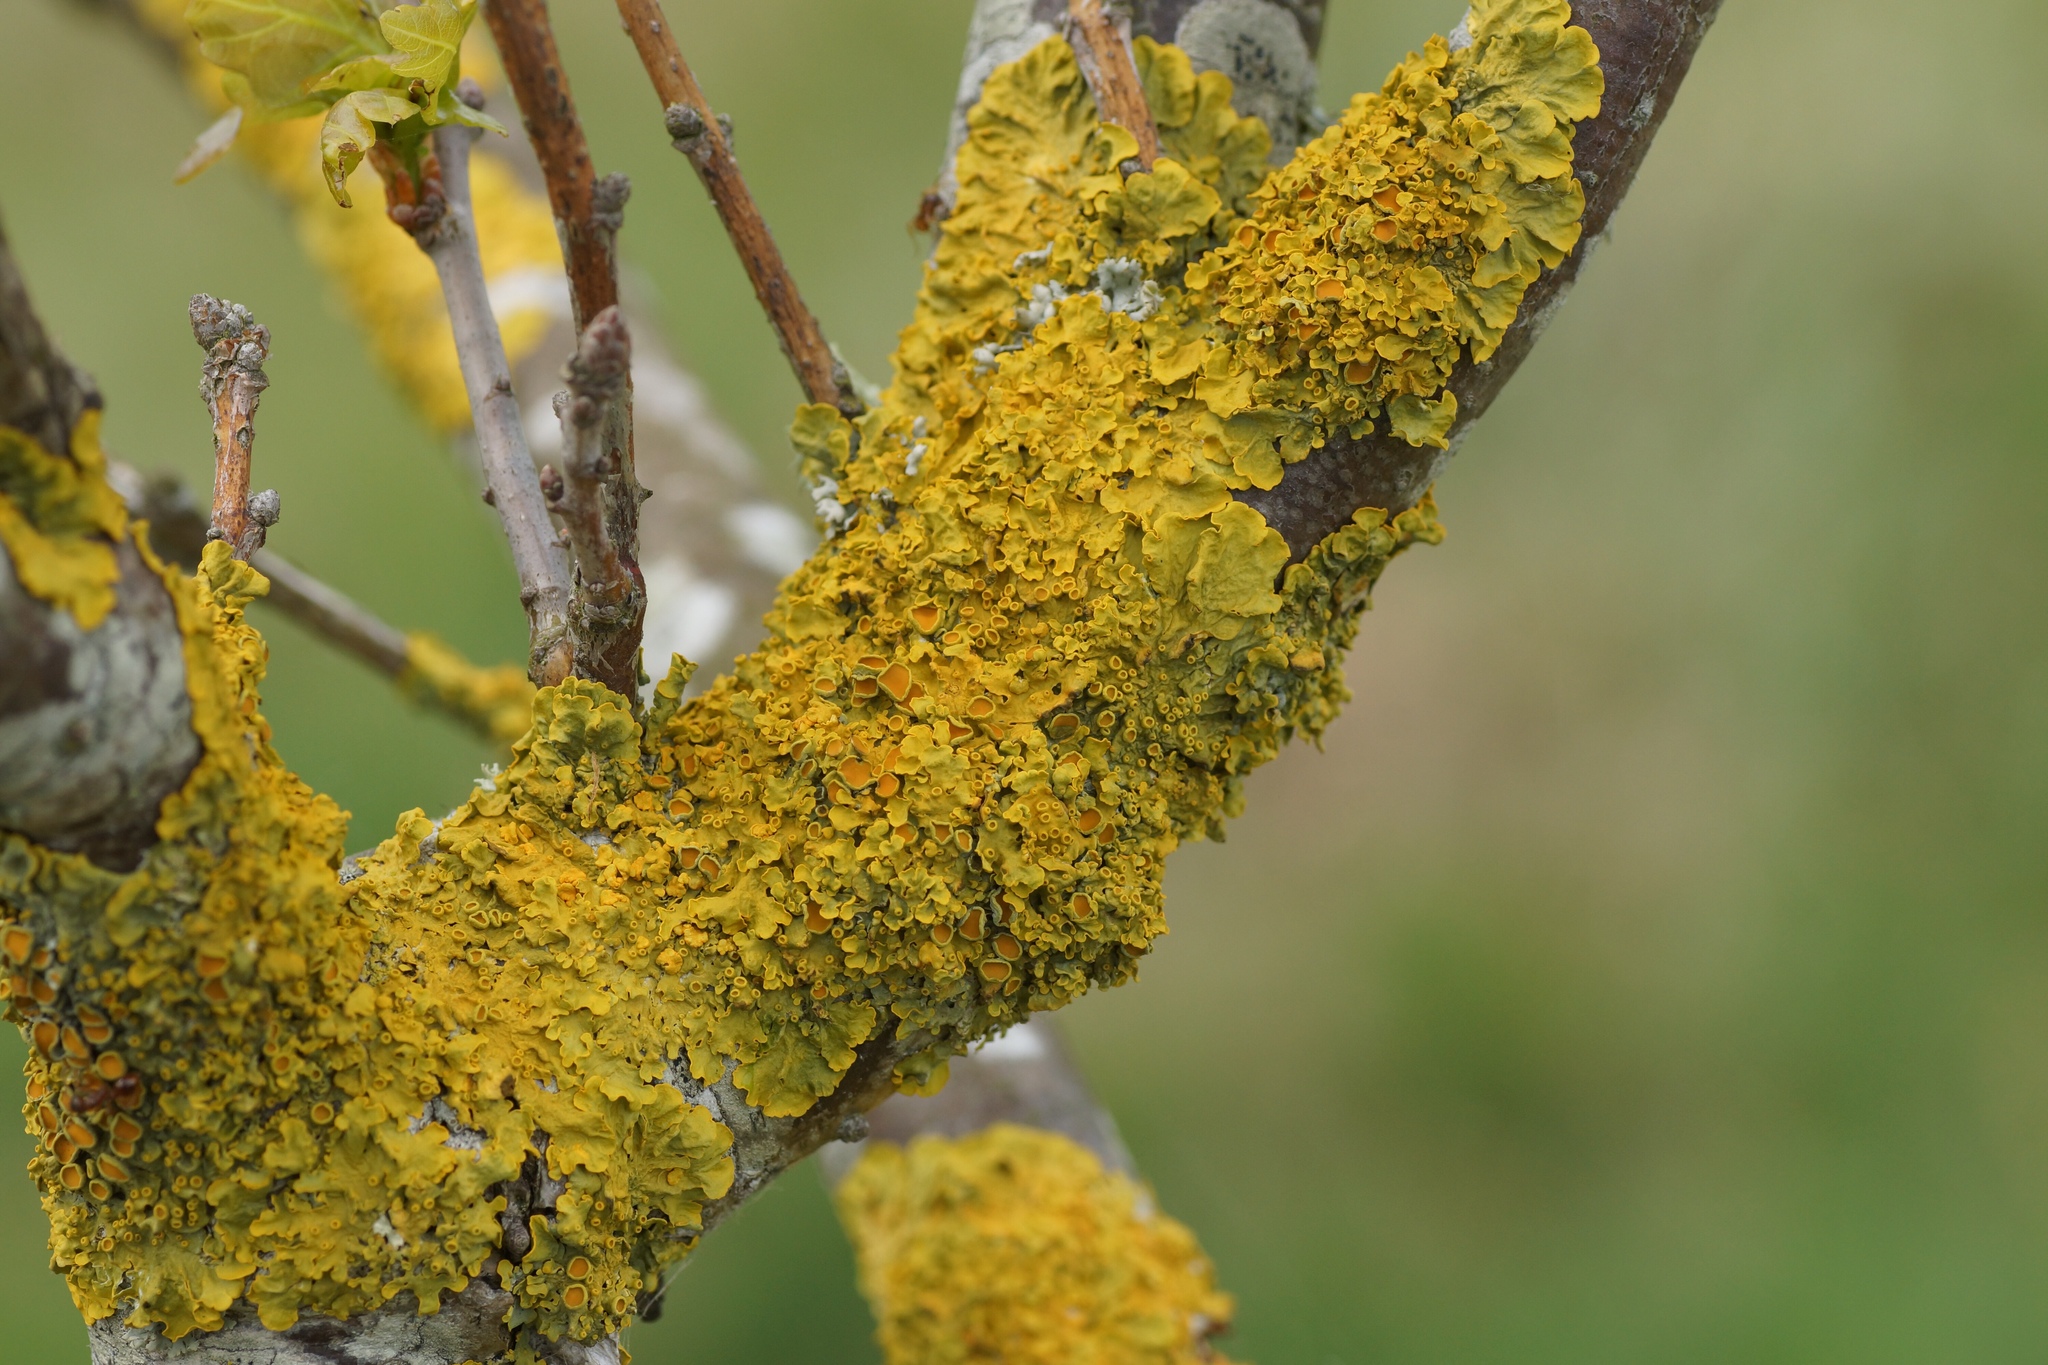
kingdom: Fungi
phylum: Ascomycota
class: Lecanoromycetes
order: Teloschistales
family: Teloschistaceae
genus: Xanthoria
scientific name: Xanthoria parietina
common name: Common orange lichen
